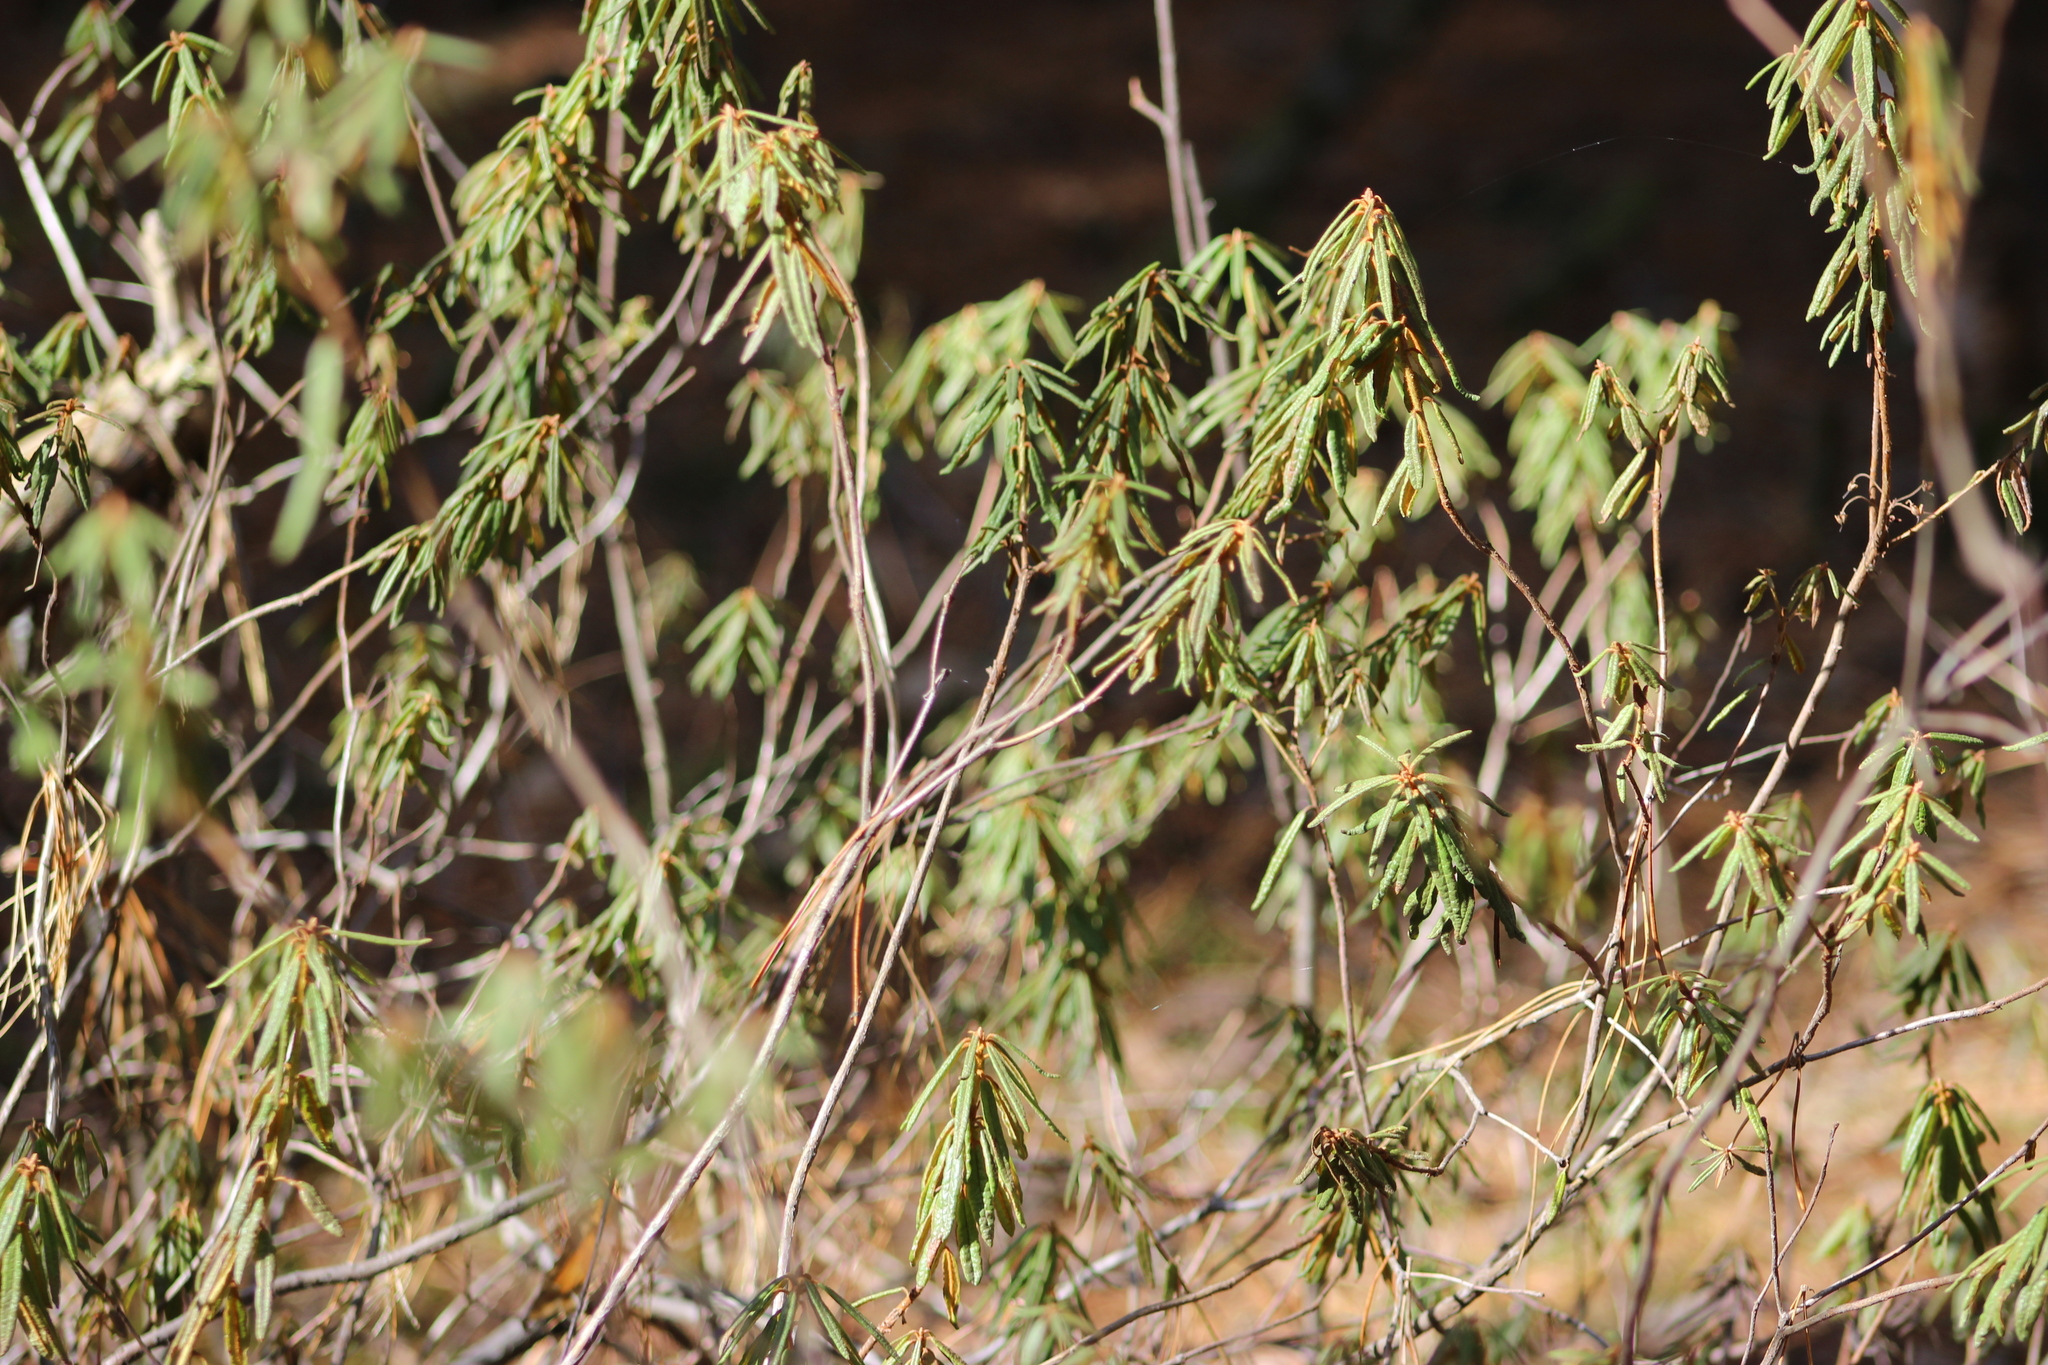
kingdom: Plantae
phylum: Tracheophyta
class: Magnoliopsida
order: Ericales
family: Ericaceae
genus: Rhododendron
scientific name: Rhododendron tomentosum
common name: Marsh labrador tea
